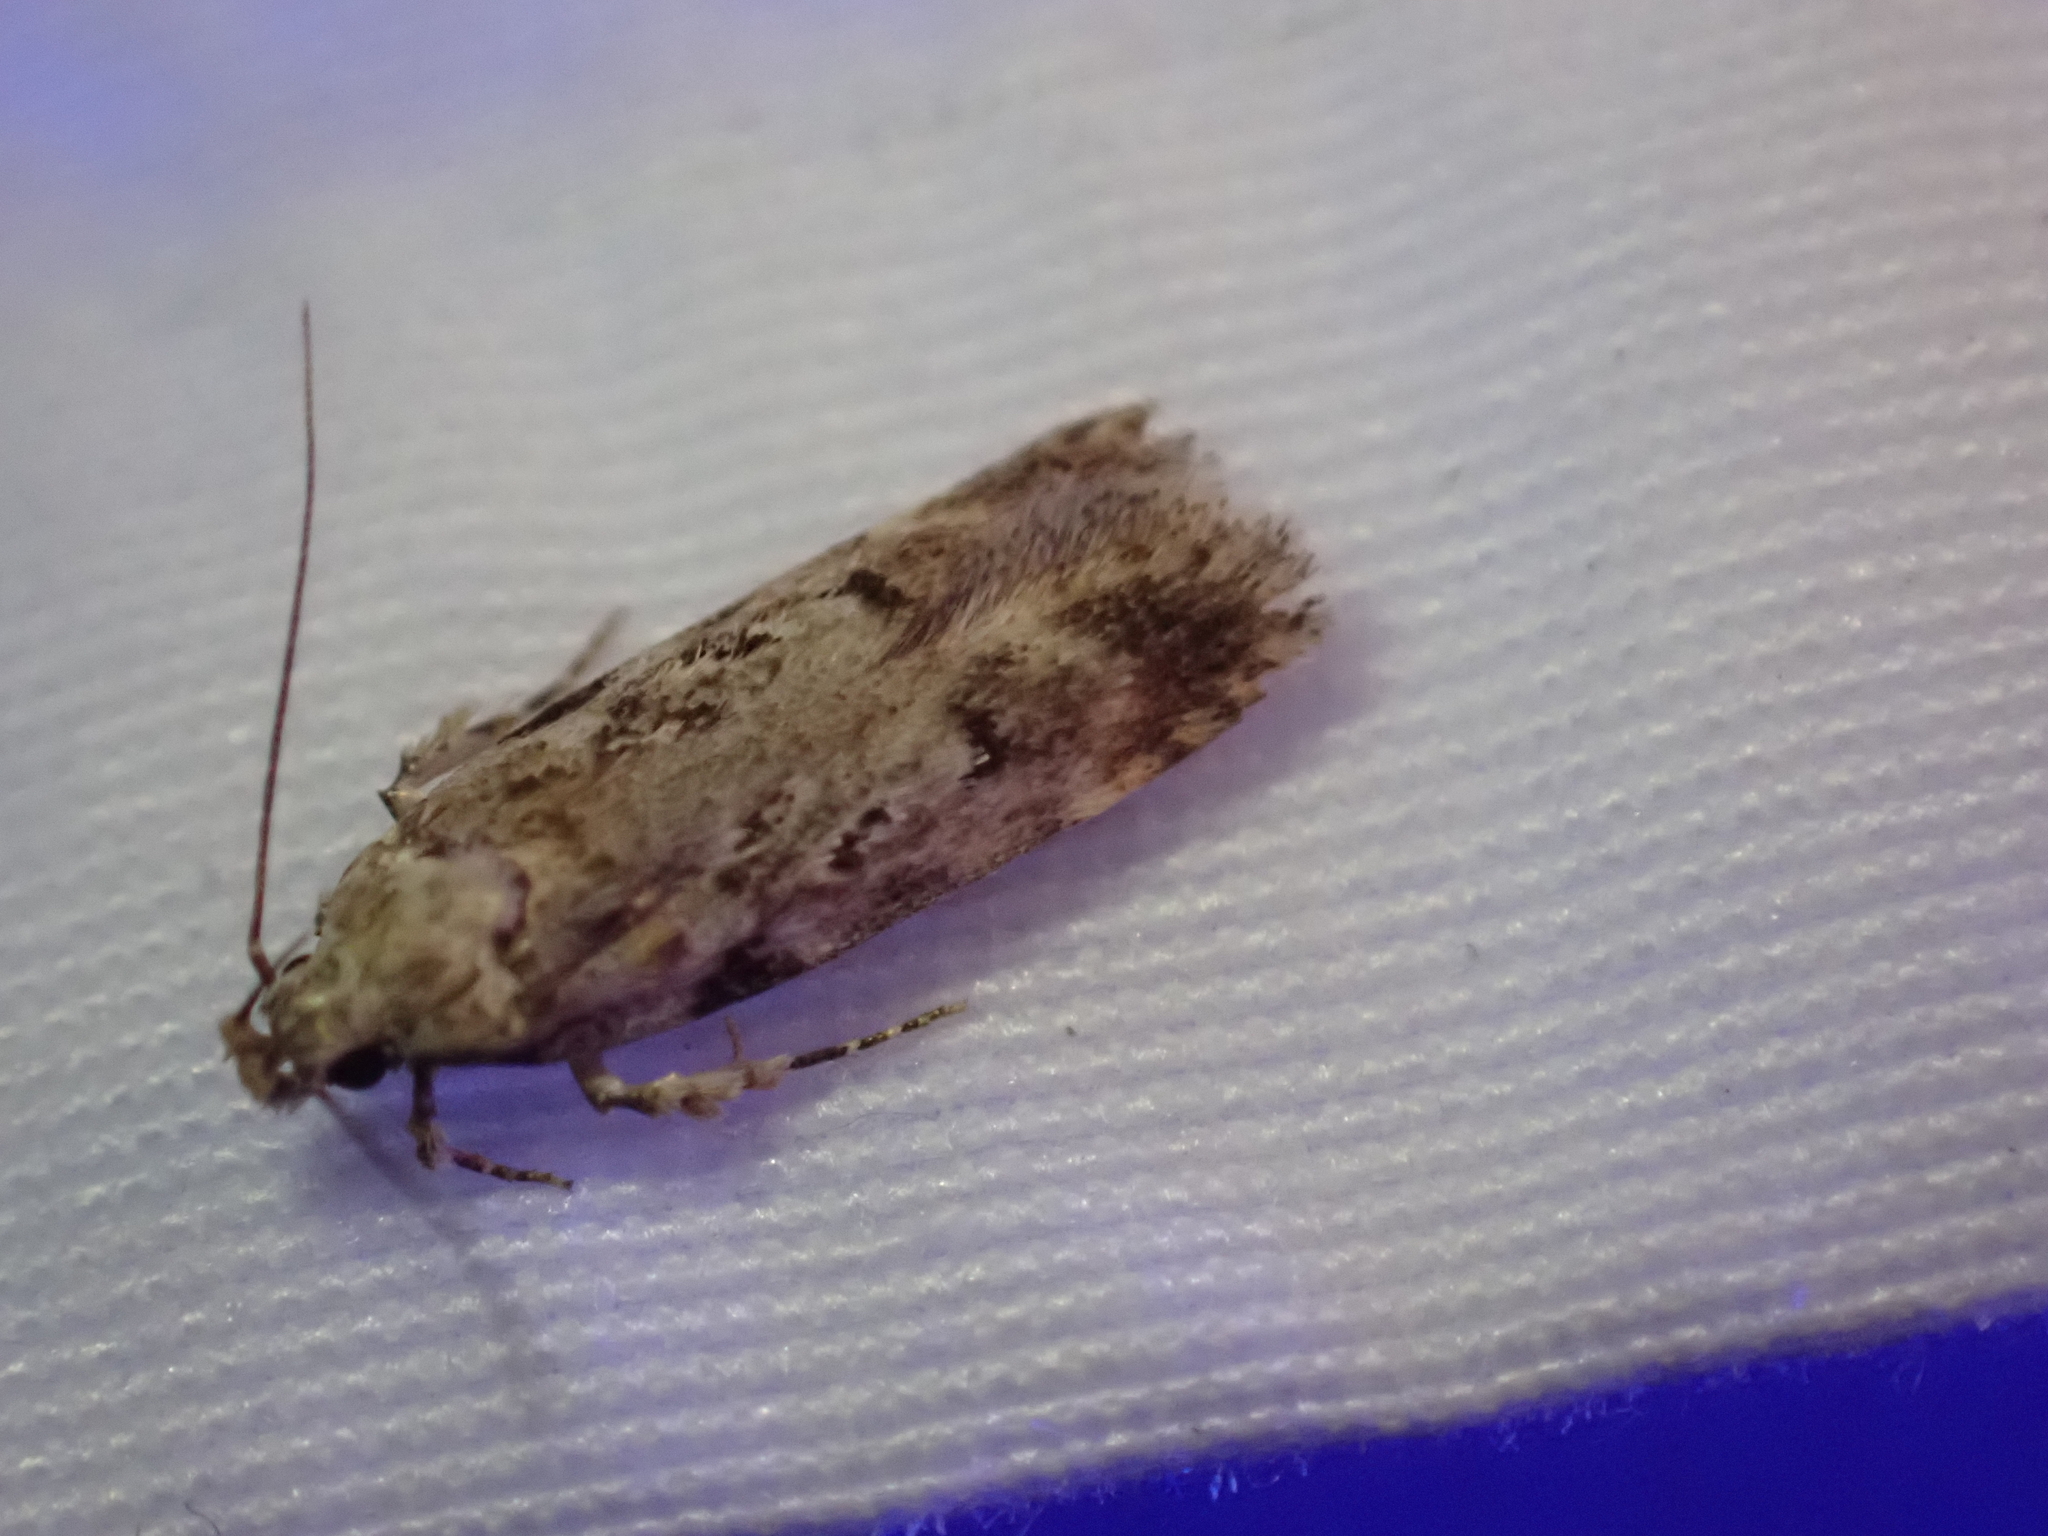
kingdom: Animalia
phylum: Arthropoda
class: Insecta
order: Lepidoptera
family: Gelechiidae
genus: Chionodes
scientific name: Chionodes petalumensis
